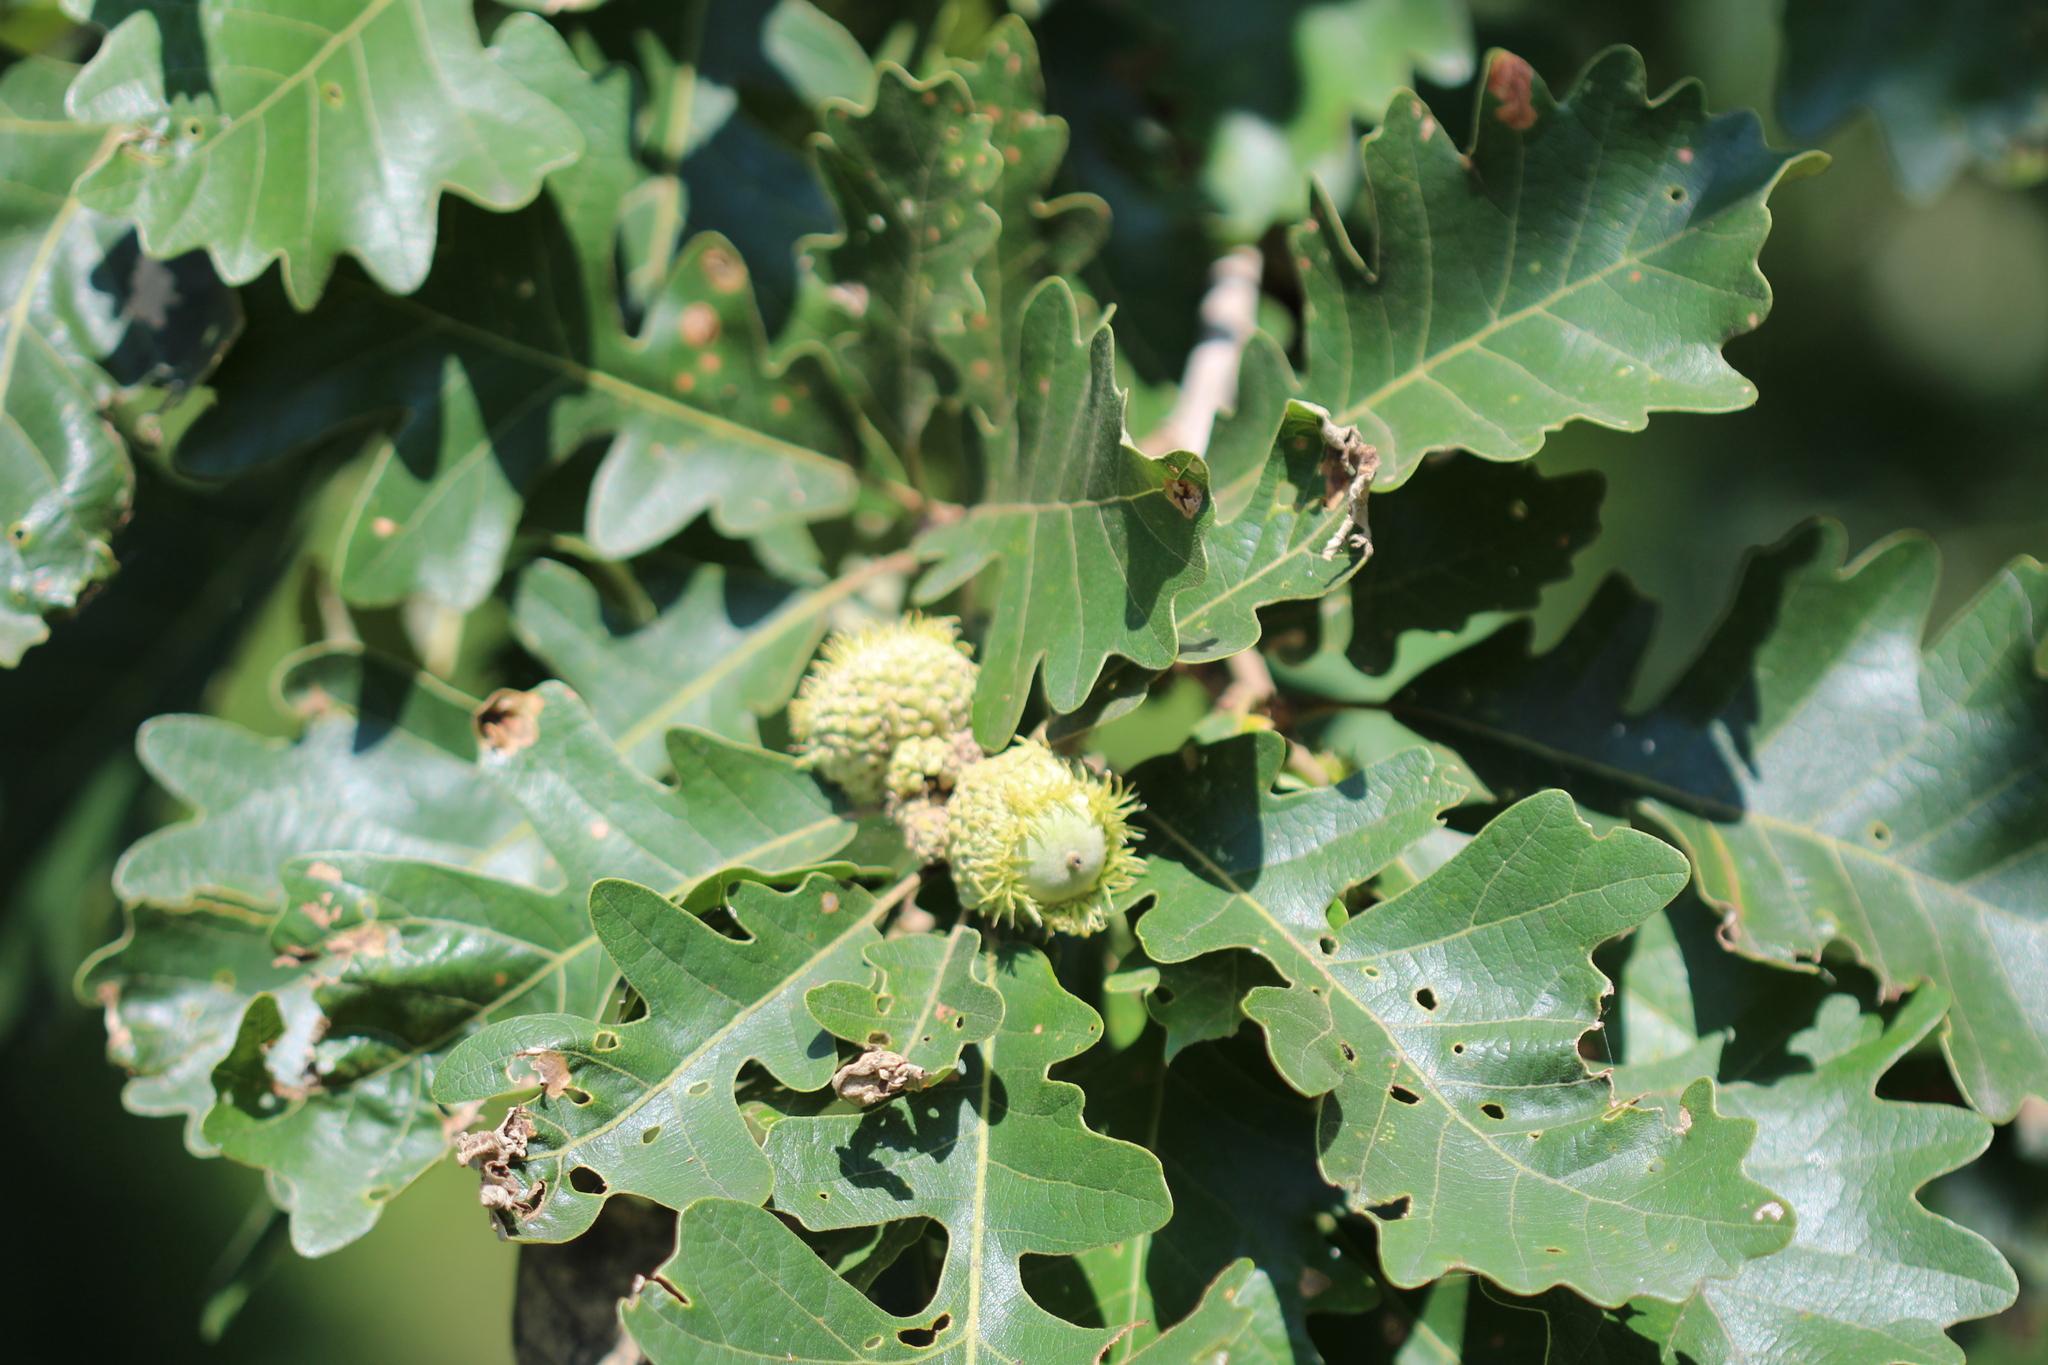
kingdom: Plantae
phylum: Tracheophyta
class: Magnoliopsida
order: Fagales
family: Fagaceae
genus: Quercus
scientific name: Quercus macrocarpa
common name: Bur oak
